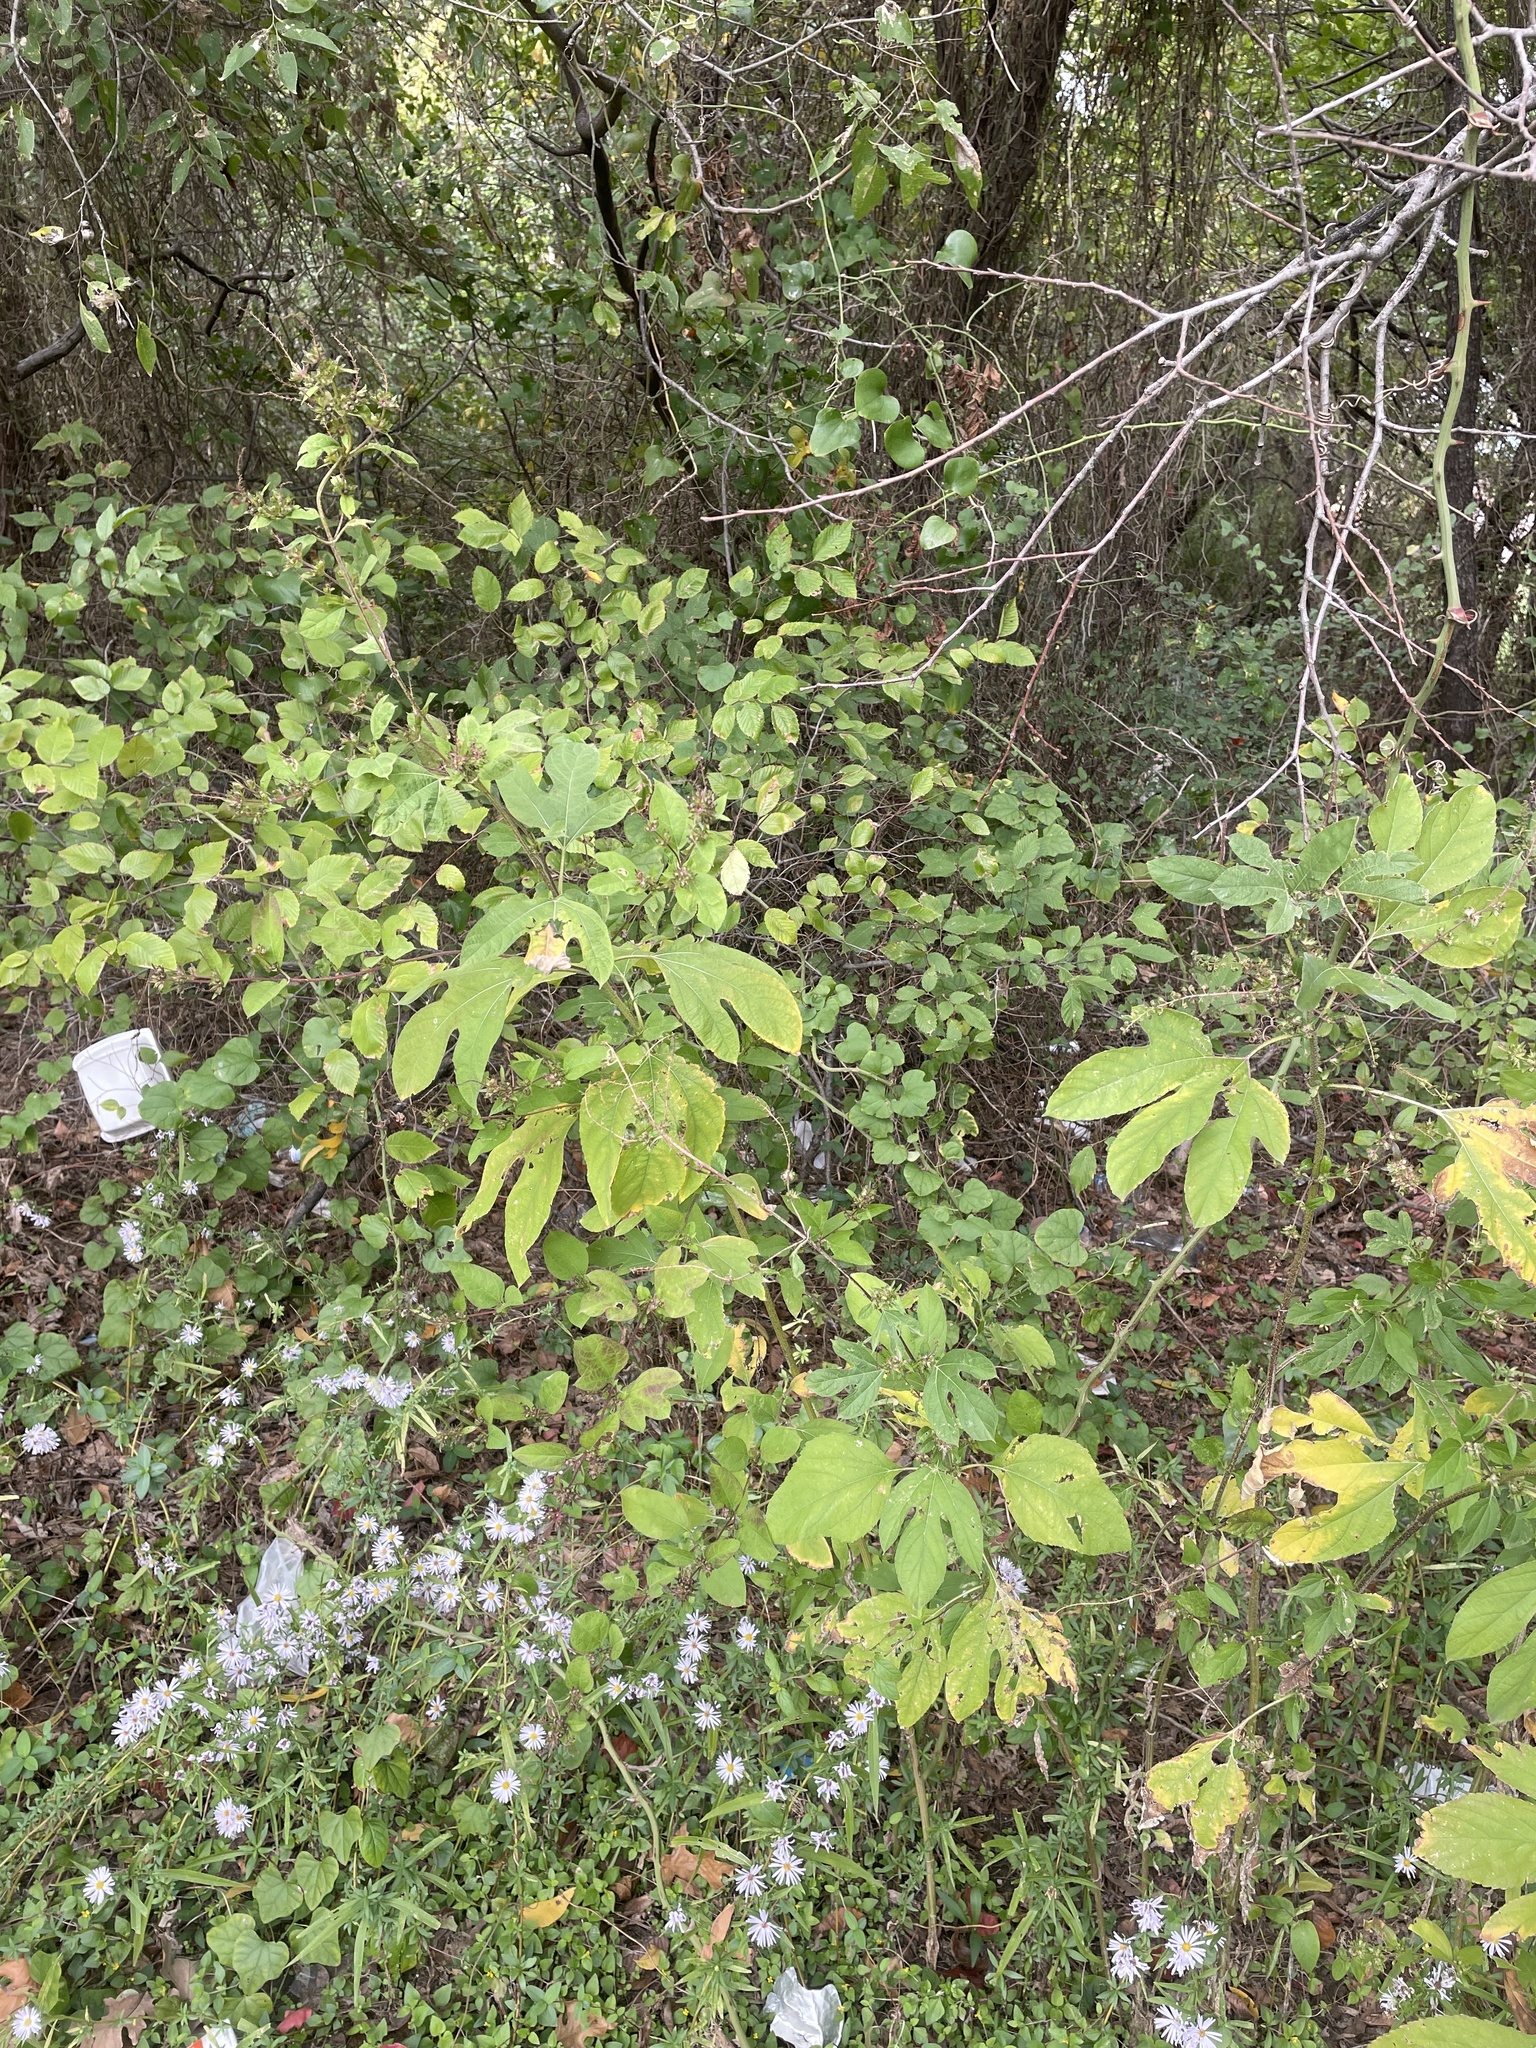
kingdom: Plantae
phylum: Tracheophyta
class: Magnoliopsida
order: Asterales
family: Asteraceae
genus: Ambrosia
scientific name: Ambrosia trifida
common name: Giant ragweed
